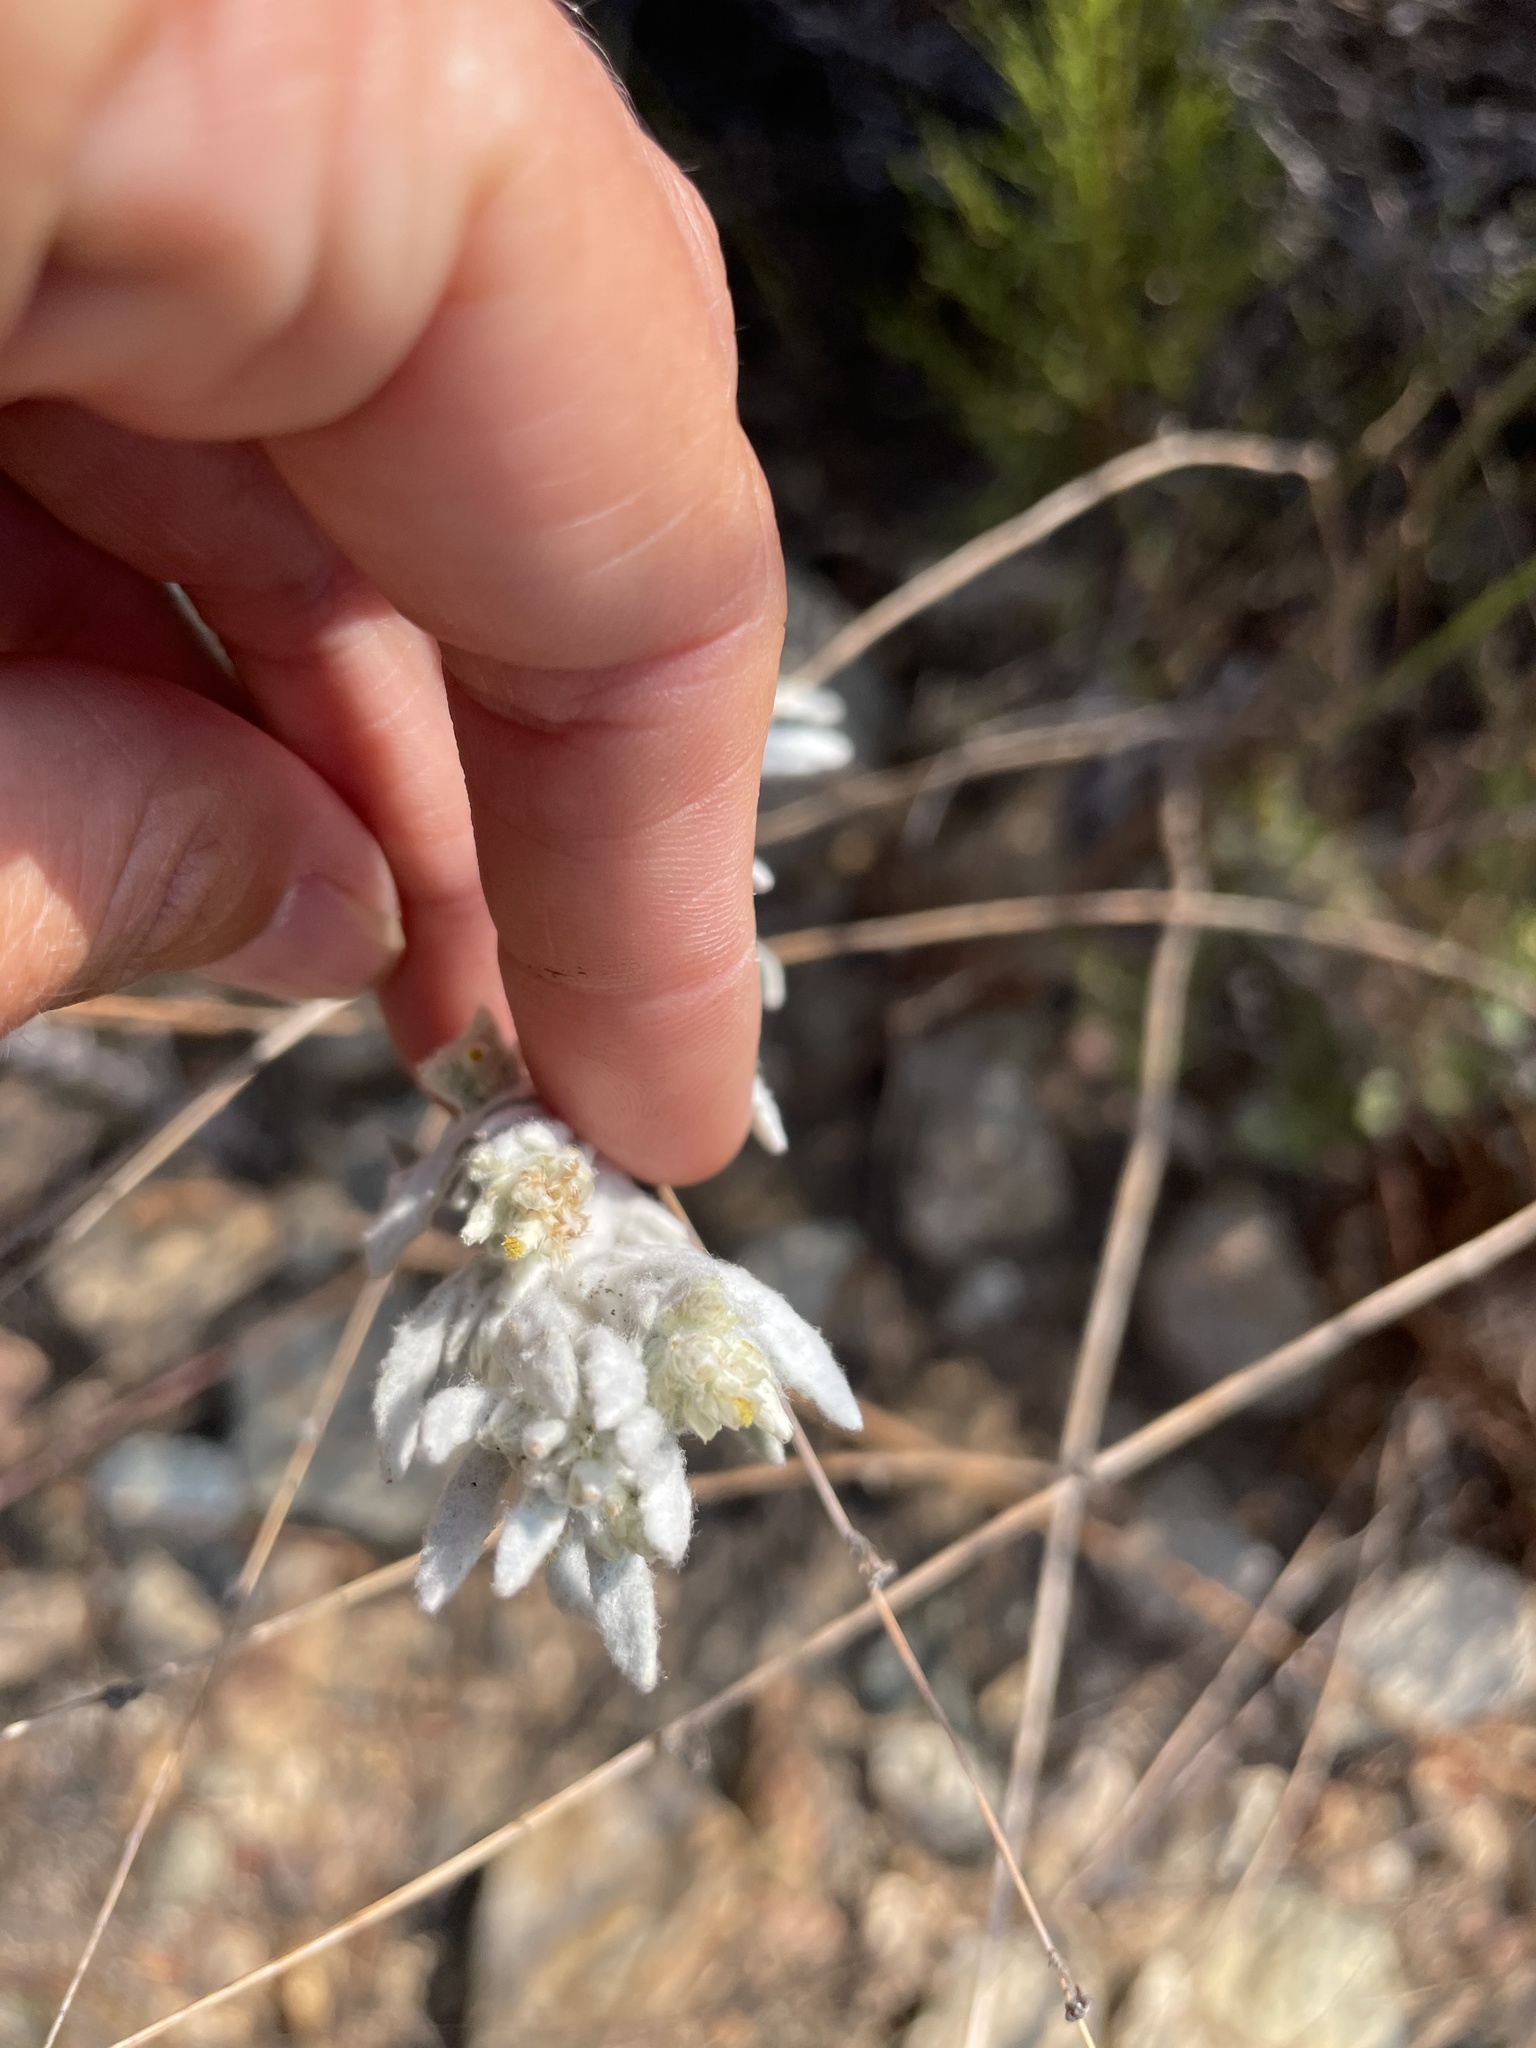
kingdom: Plantae
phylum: Tracheophyta
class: Magnoliopsida
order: Asterales
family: Asteraceae
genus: Pseudognaphalium
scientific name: Pseudognaphalium microcephalum
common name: San diego rabbit-tobacco
